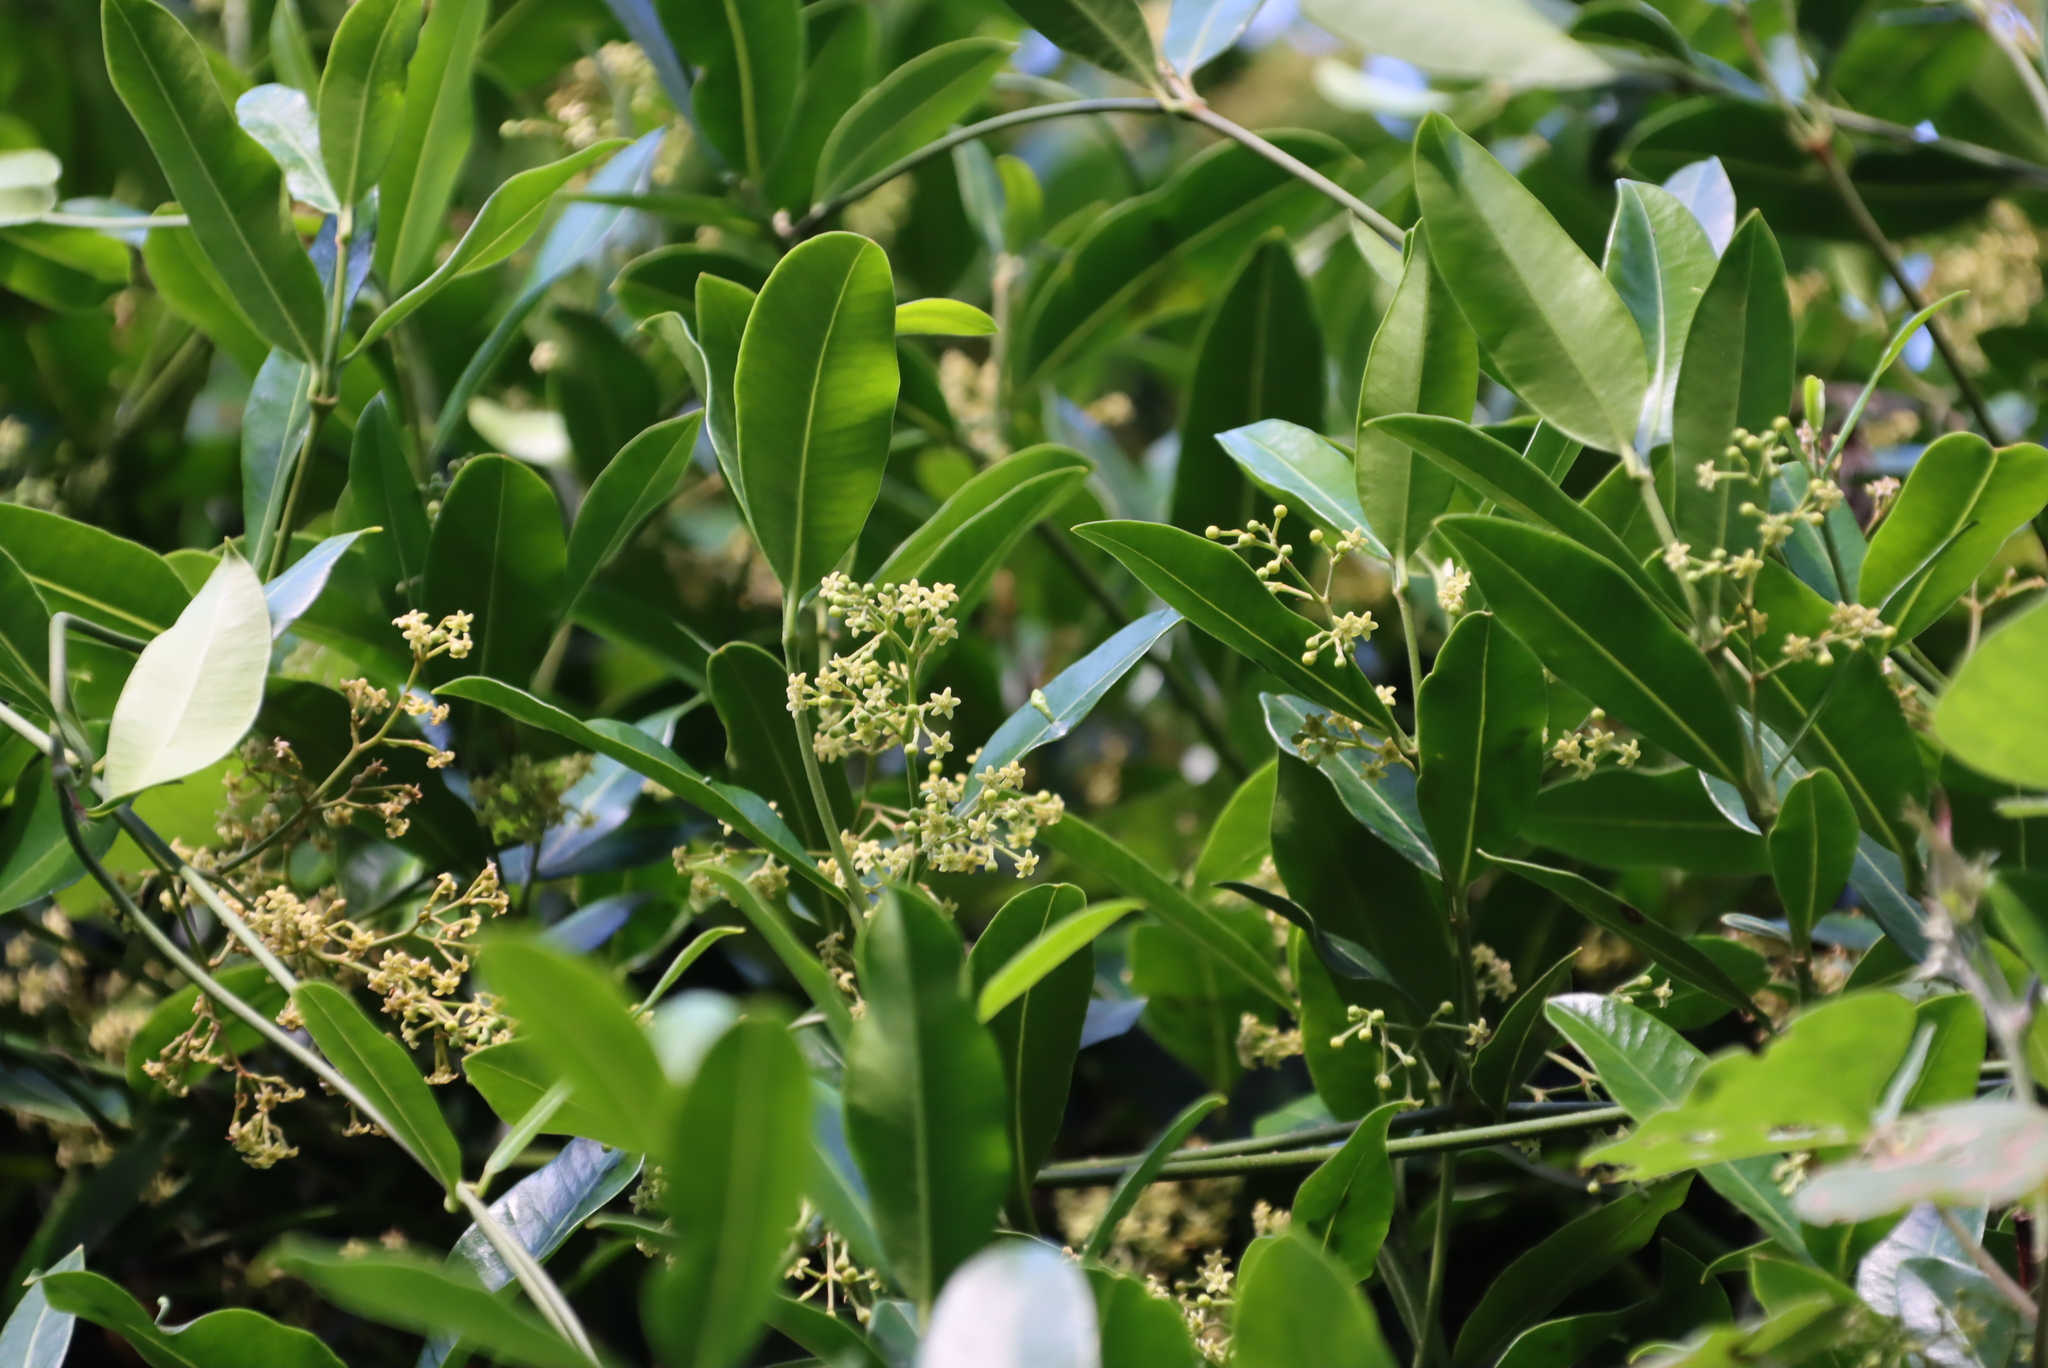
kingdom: Plantae
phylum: Tracheophyta
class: Magnoliopsida
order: Gentianales
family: Apocynaceae
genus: Secamone
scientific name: Secamone alpini
